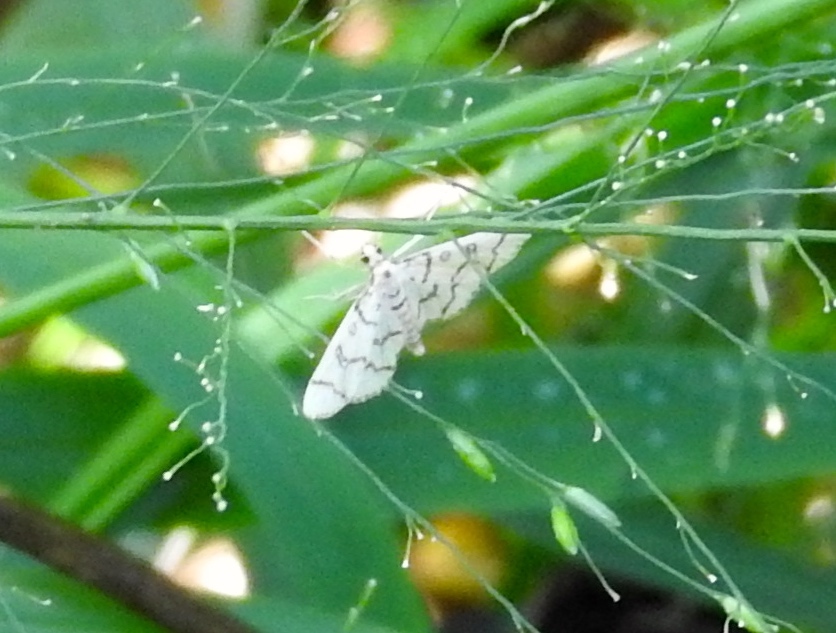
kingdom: Animalia
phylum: Arthropoda
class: Insecta
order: Lepidoptera
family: Crambidae
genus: Lamprosema
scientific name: Lamprosema
